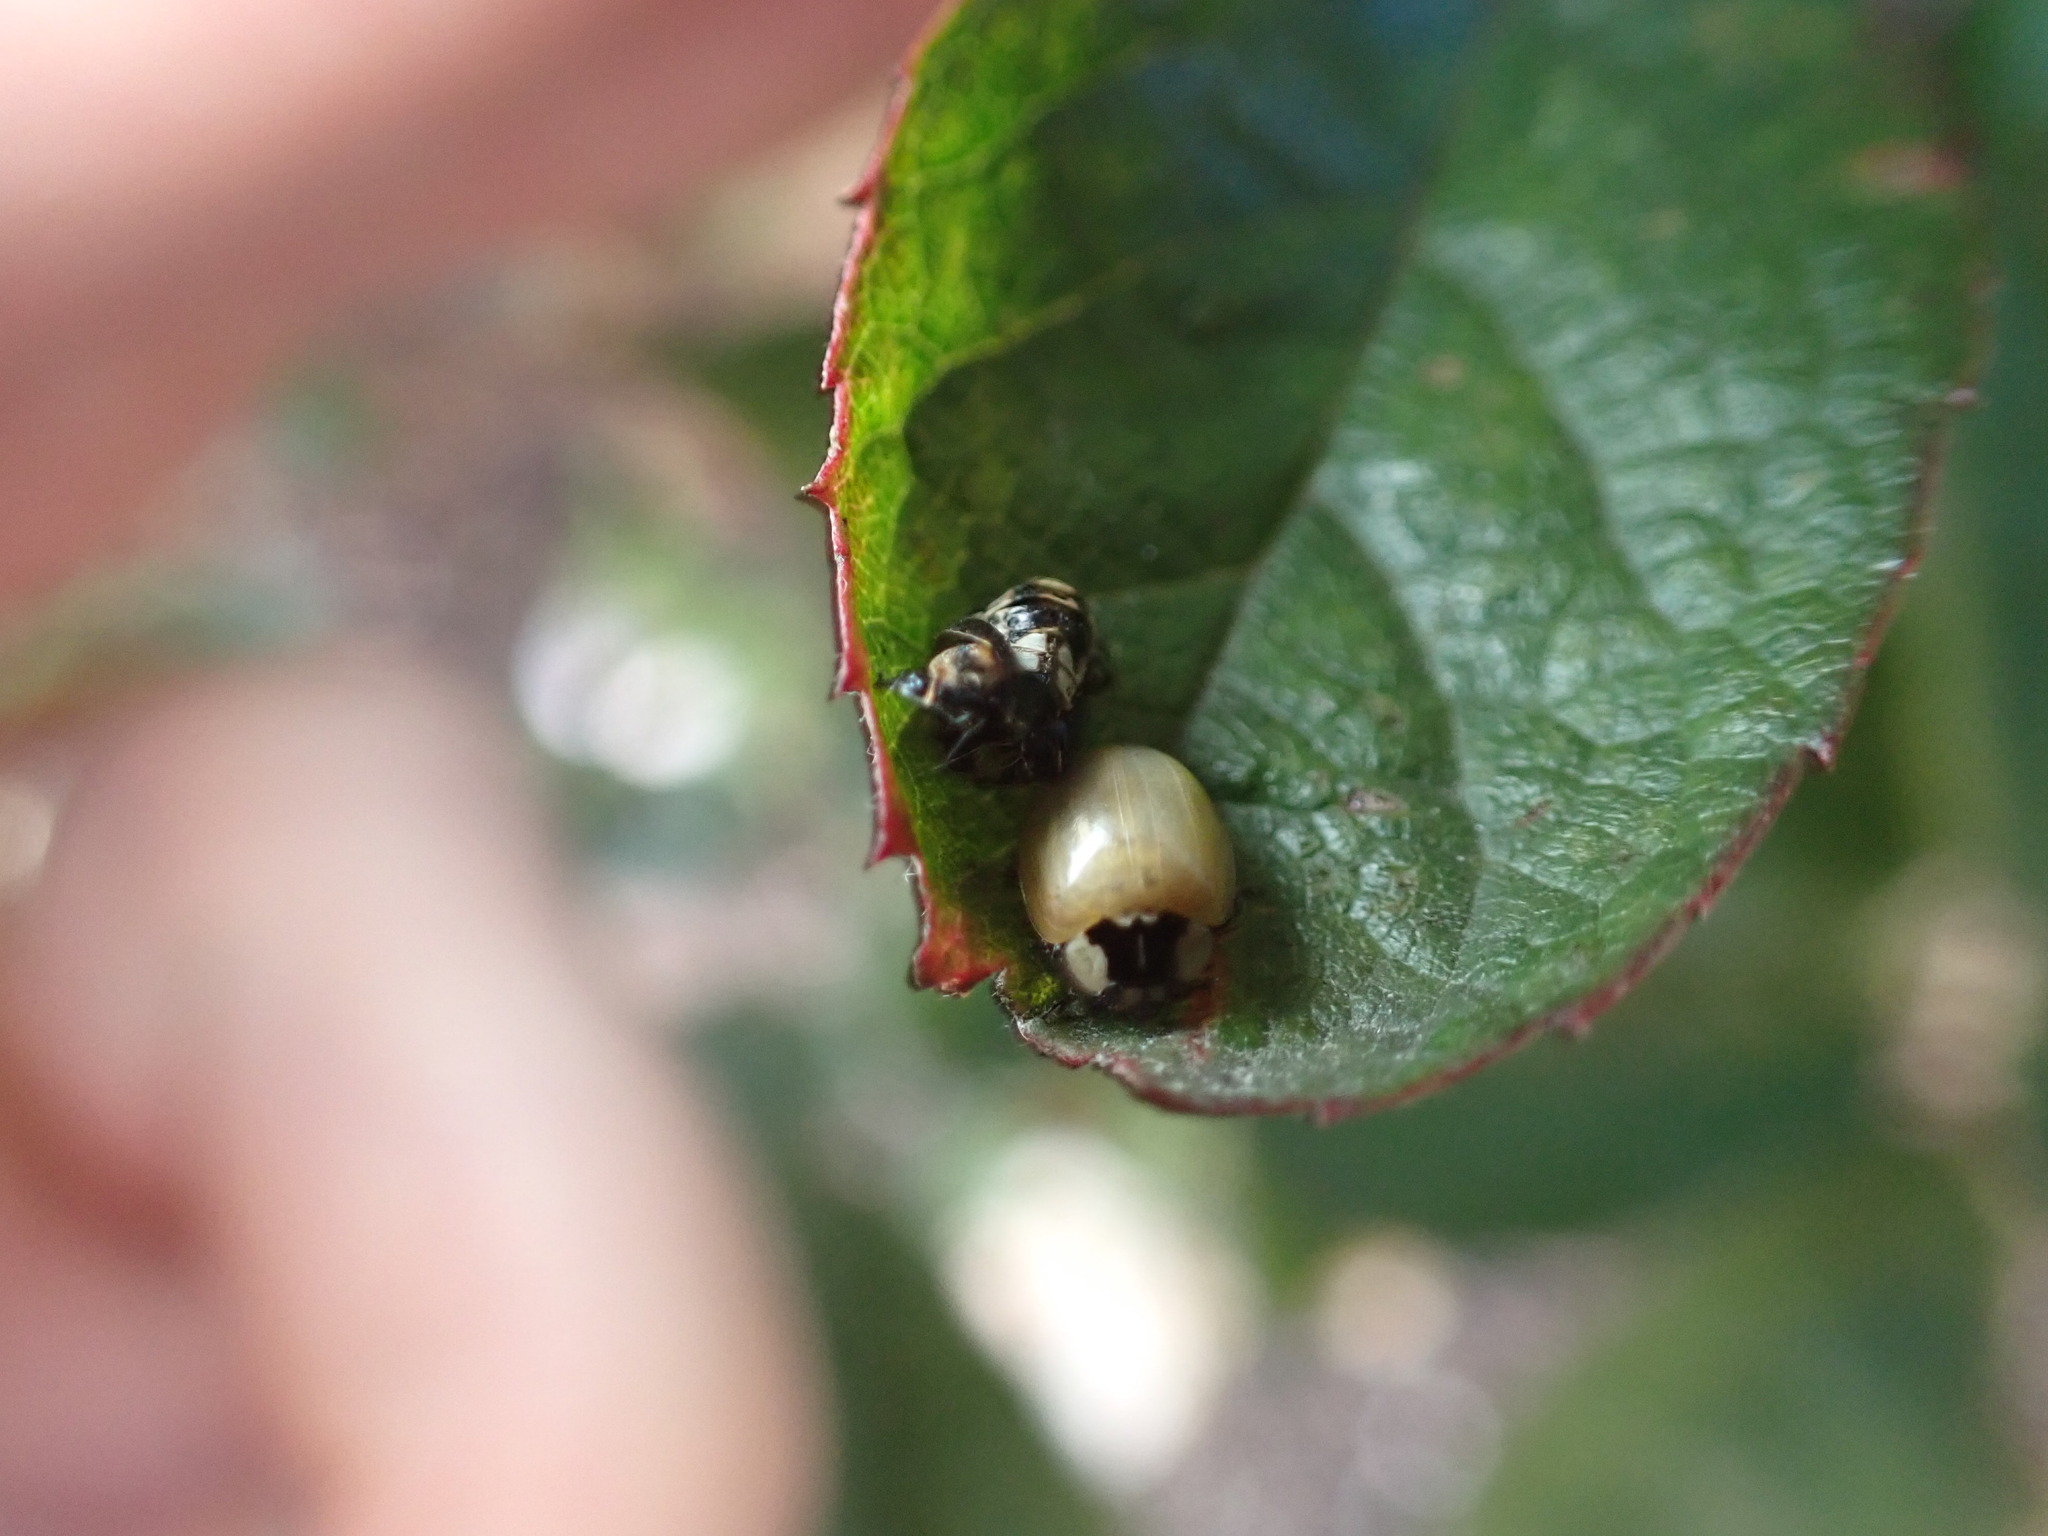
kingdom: Animalia
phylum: Arthropoda
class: Insecta
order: Coleoptera
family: Coccinellidae
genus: Adalia
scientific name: Adalia bipunctata
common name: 2-spot ladybird
